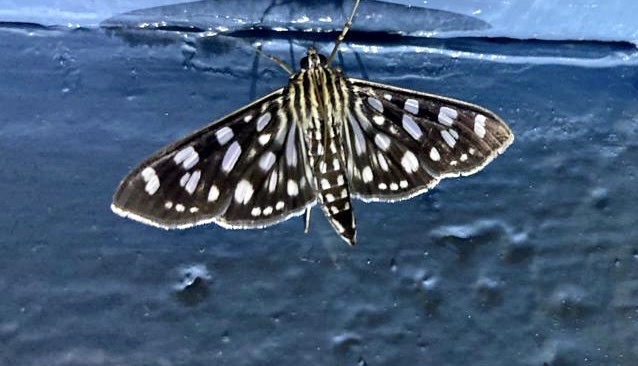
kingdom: Animalia
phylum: Arthropoda
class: Insecta
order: Lepidoptera
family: Crambidae
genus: Pygospila
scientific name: Pygospila tyres
